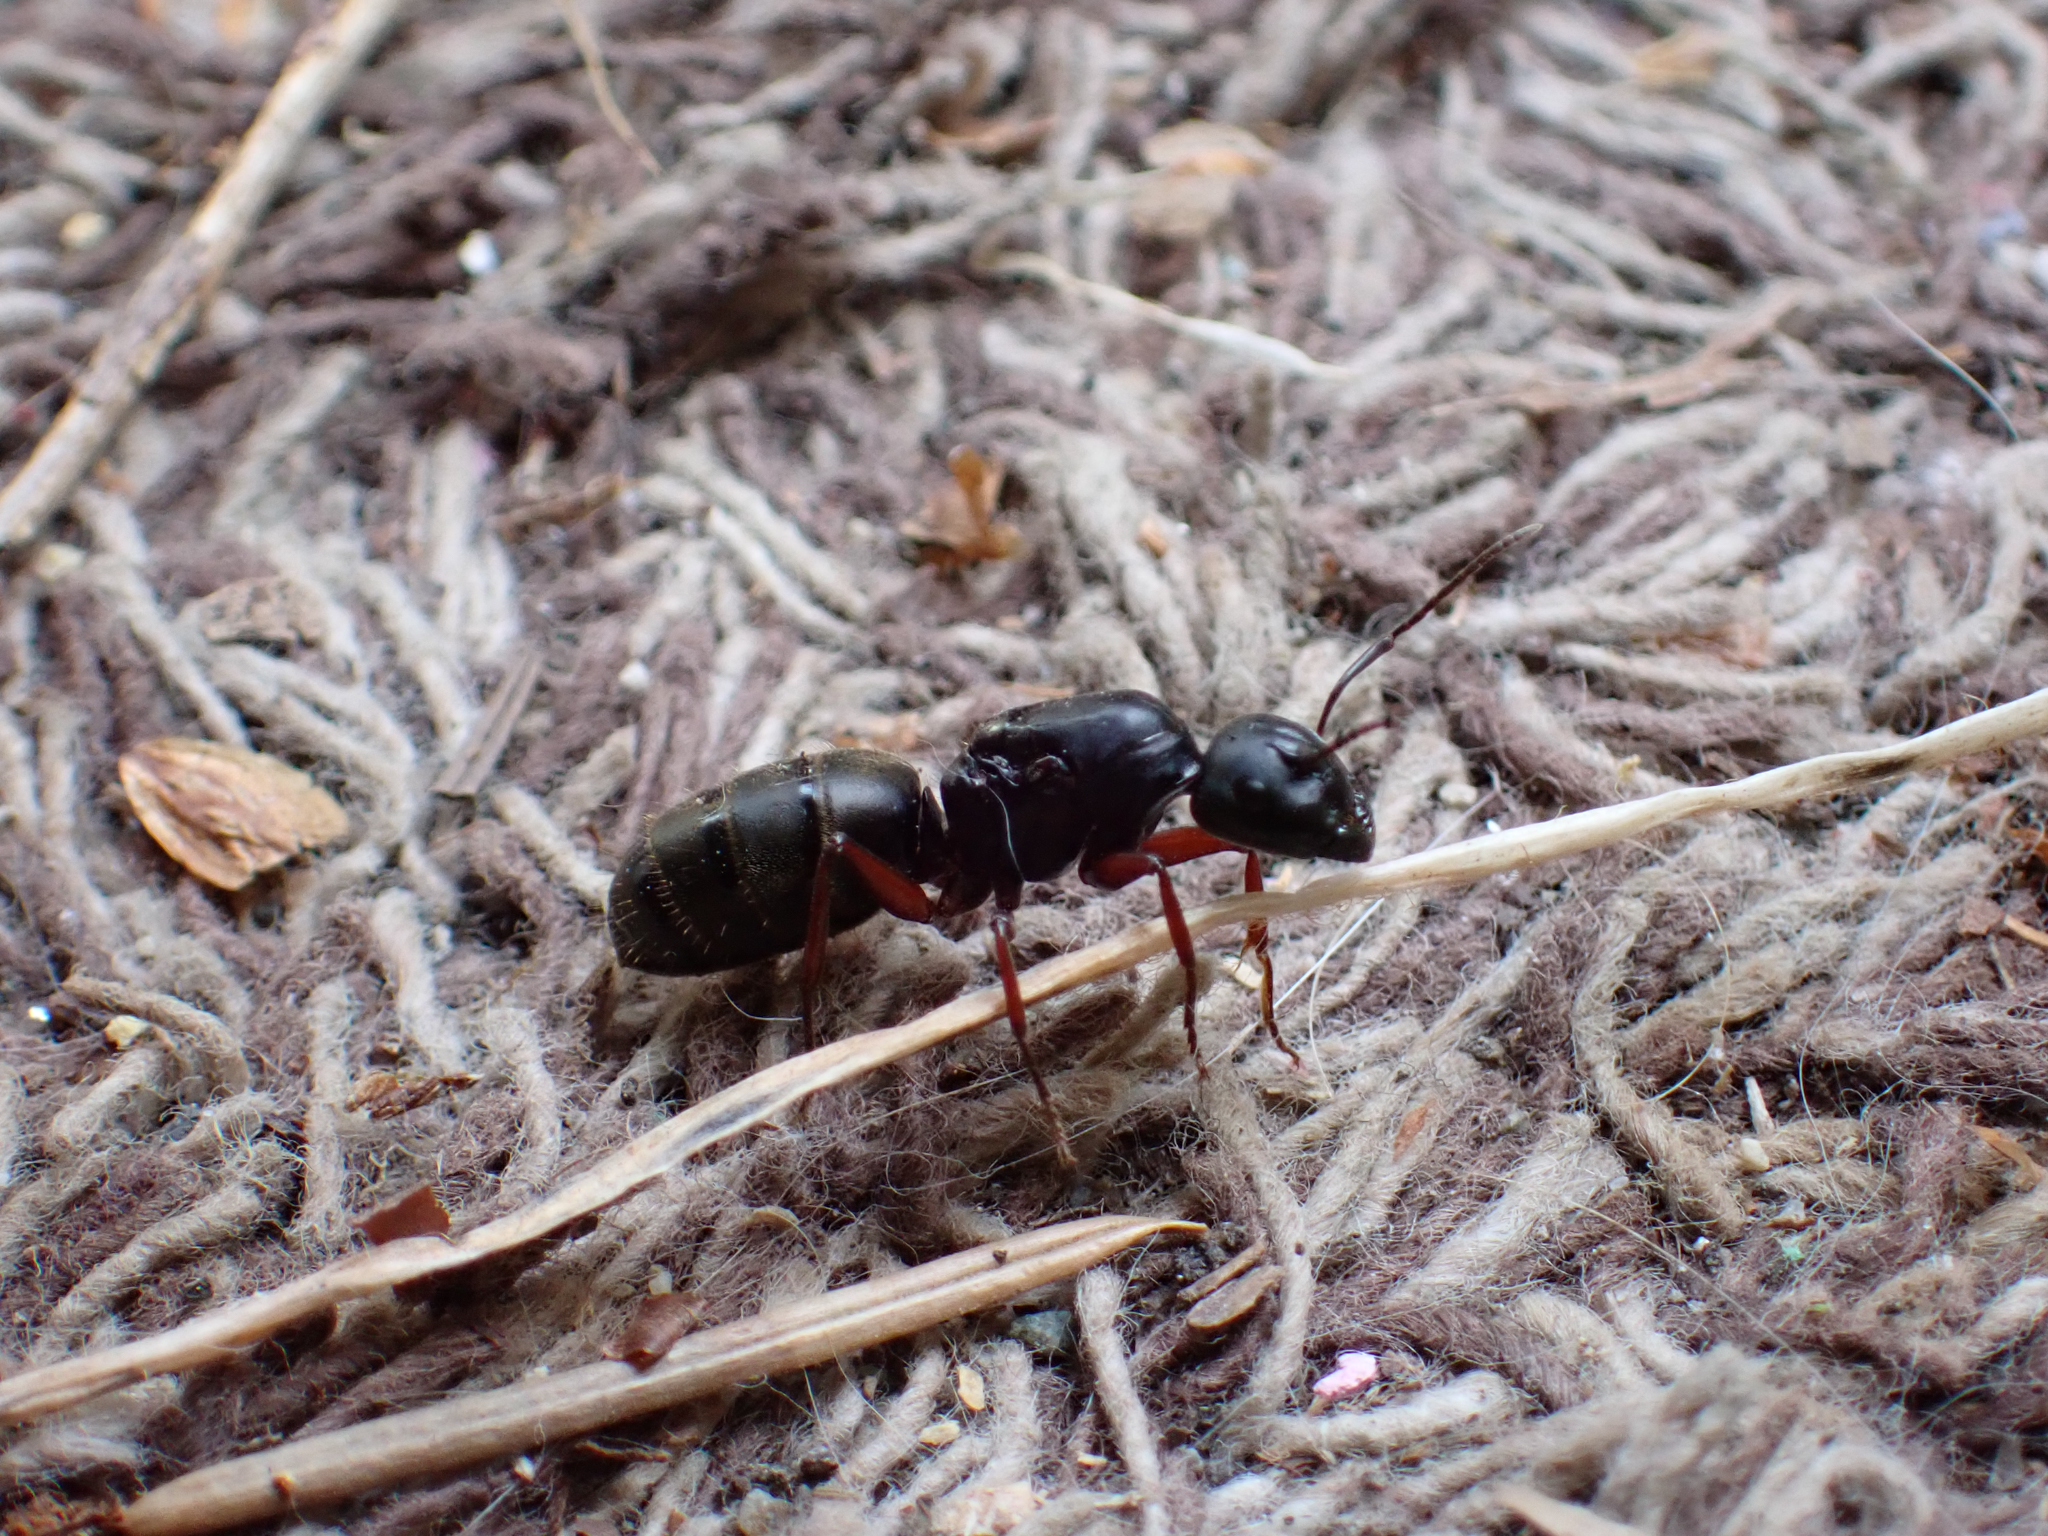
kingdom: Animalia
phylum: Arthropoda
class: Insecta
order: Hymenoptera
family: Formicidae
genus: Camponotus
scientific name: Camponotus modoc
